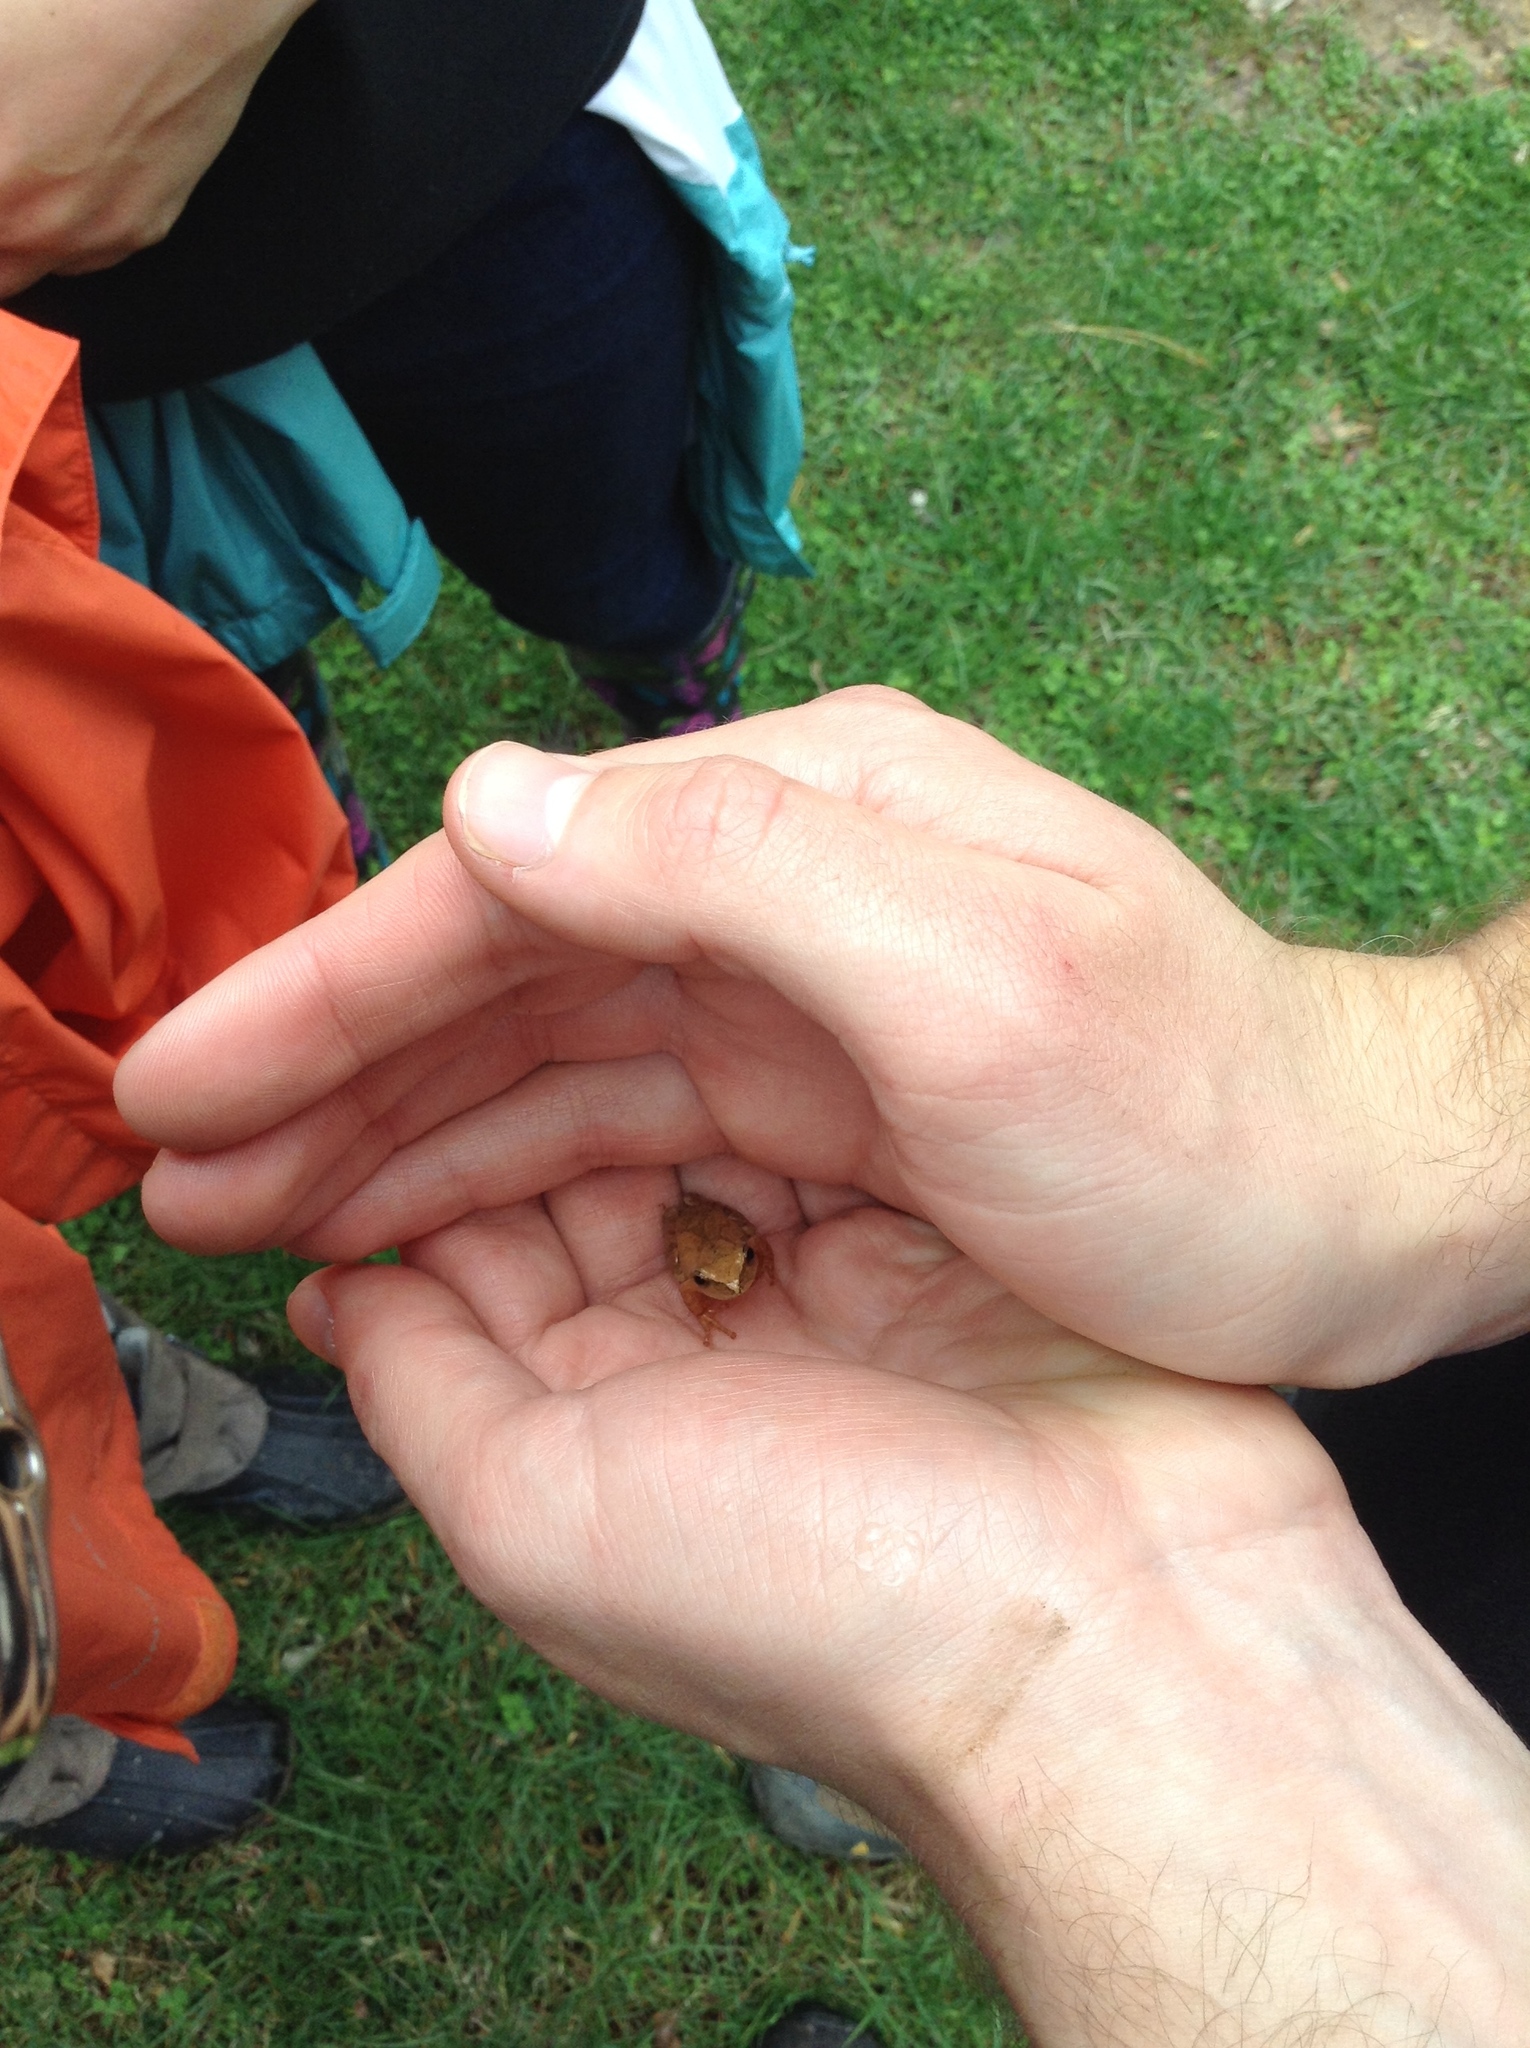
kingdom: Animalia
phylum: Chordata
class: Amphibia
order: Anura
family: Hylidae
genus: Pseudacris
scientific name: Pseudacris crucifer
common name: Spring peeper
